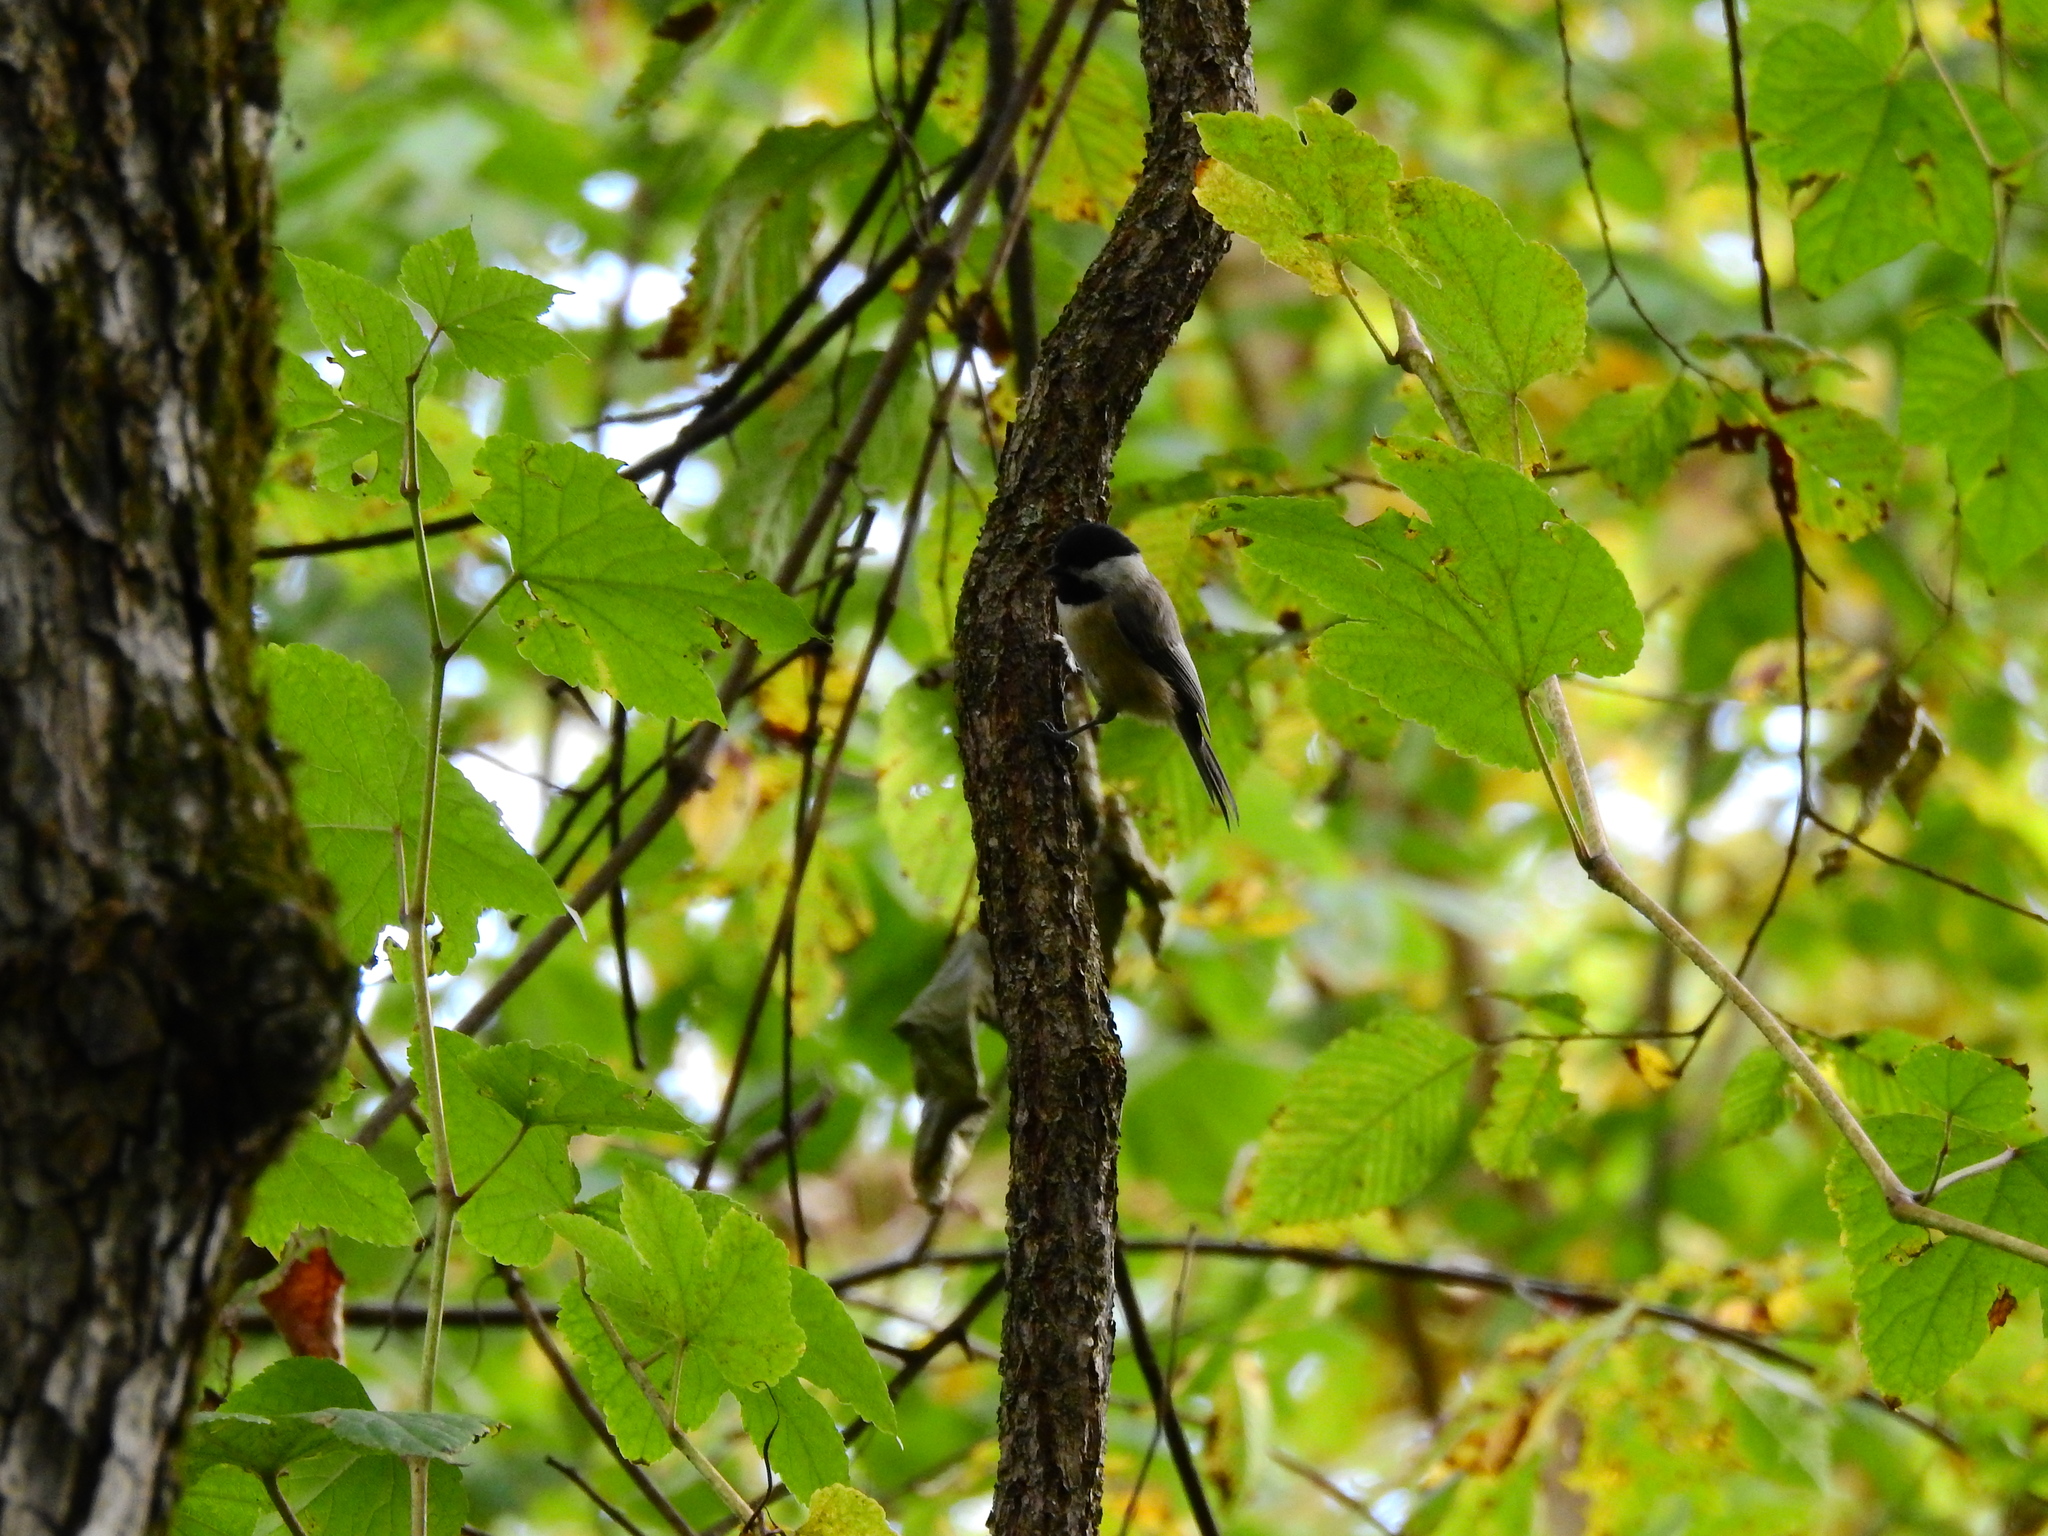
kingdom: Animalia
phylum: Chordata
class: Aves
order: Passeriformes
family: Paridae
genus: Poecile
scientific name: Poecile carolinensis
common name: Carolina chickadee
